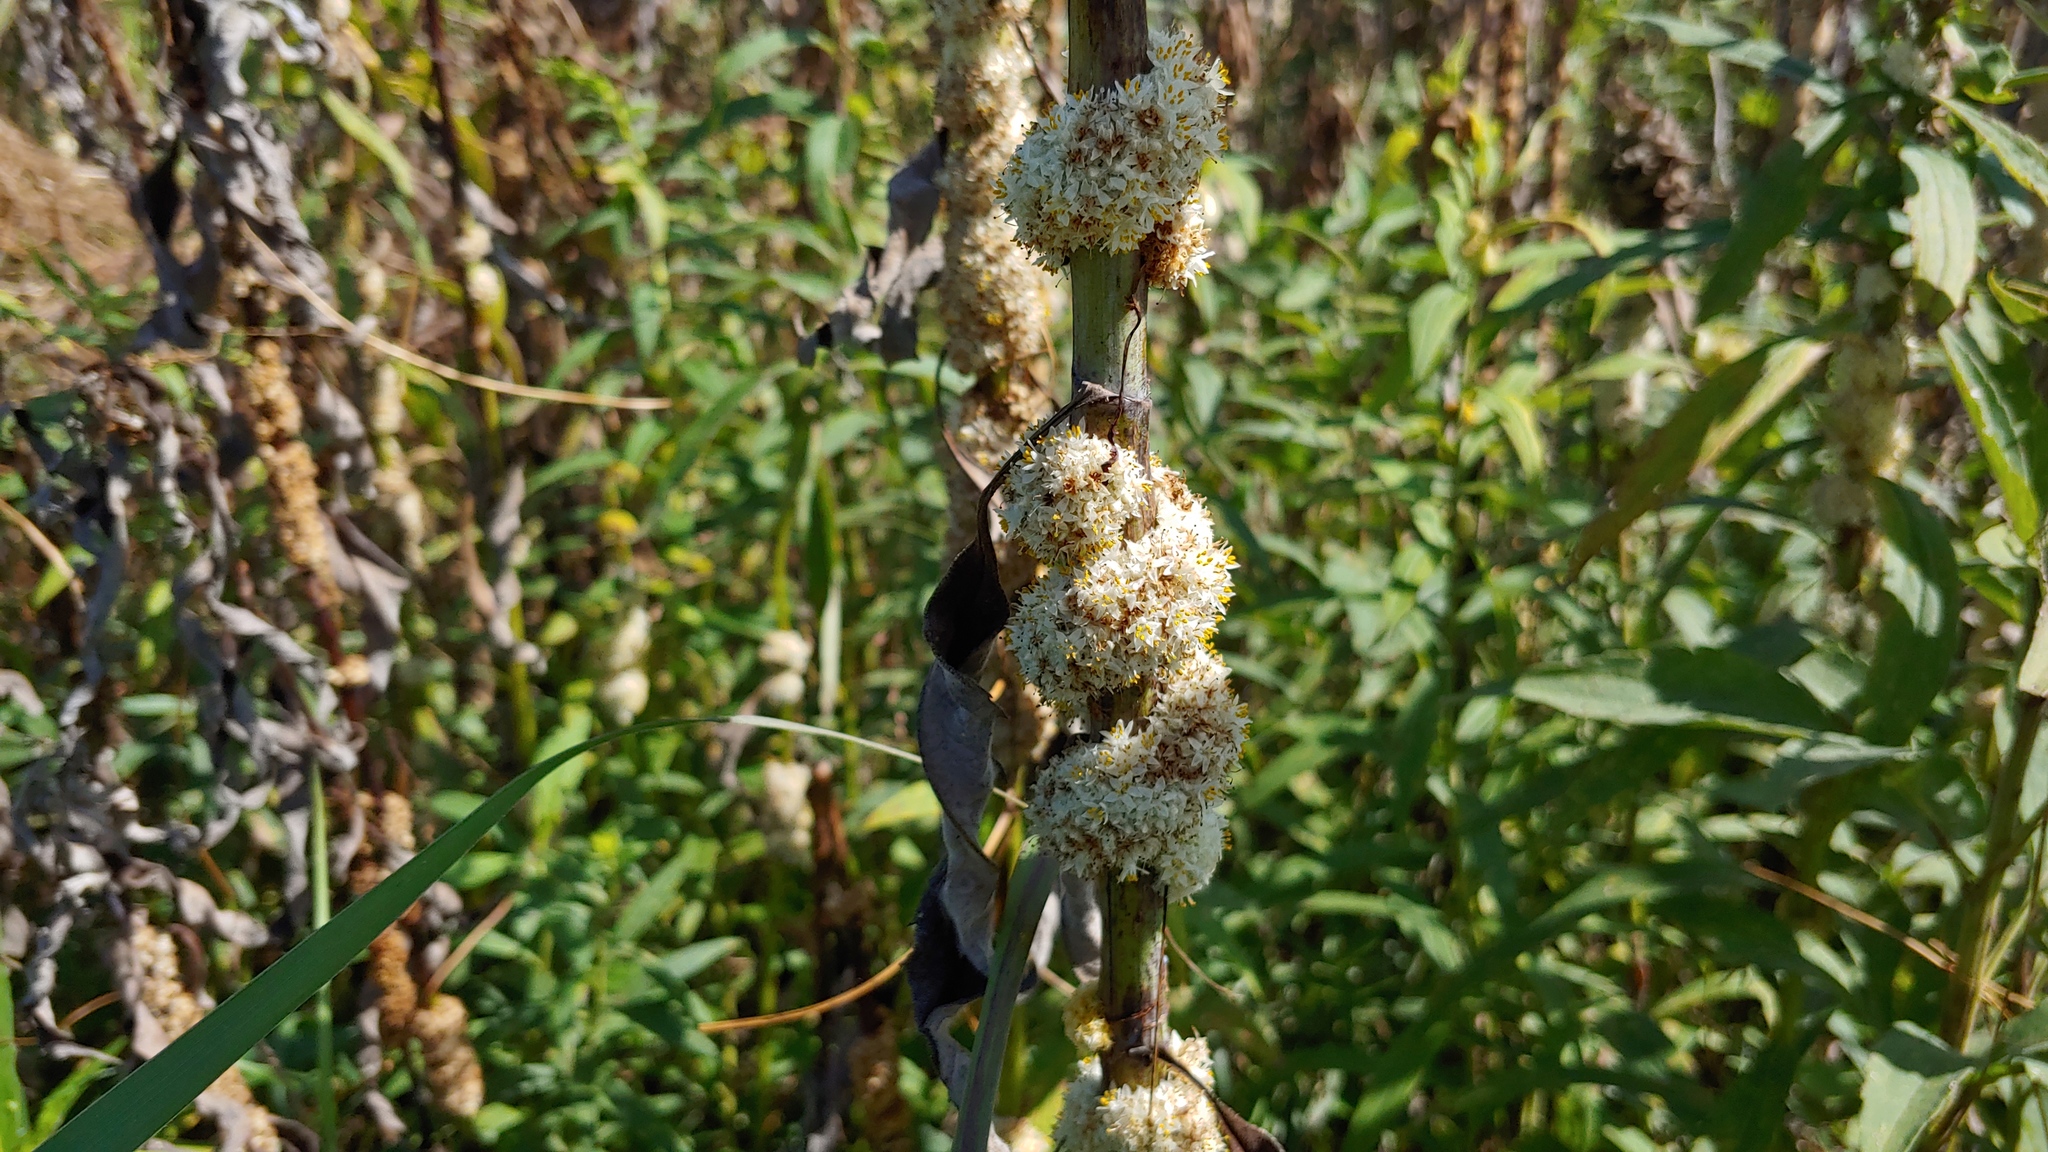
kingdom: Plantae
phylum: Tracheophyta
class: Magnoliopsida
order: Solanales
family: Convolvulaceae
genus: Cuscuta
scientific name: Cuscuta glomerata
